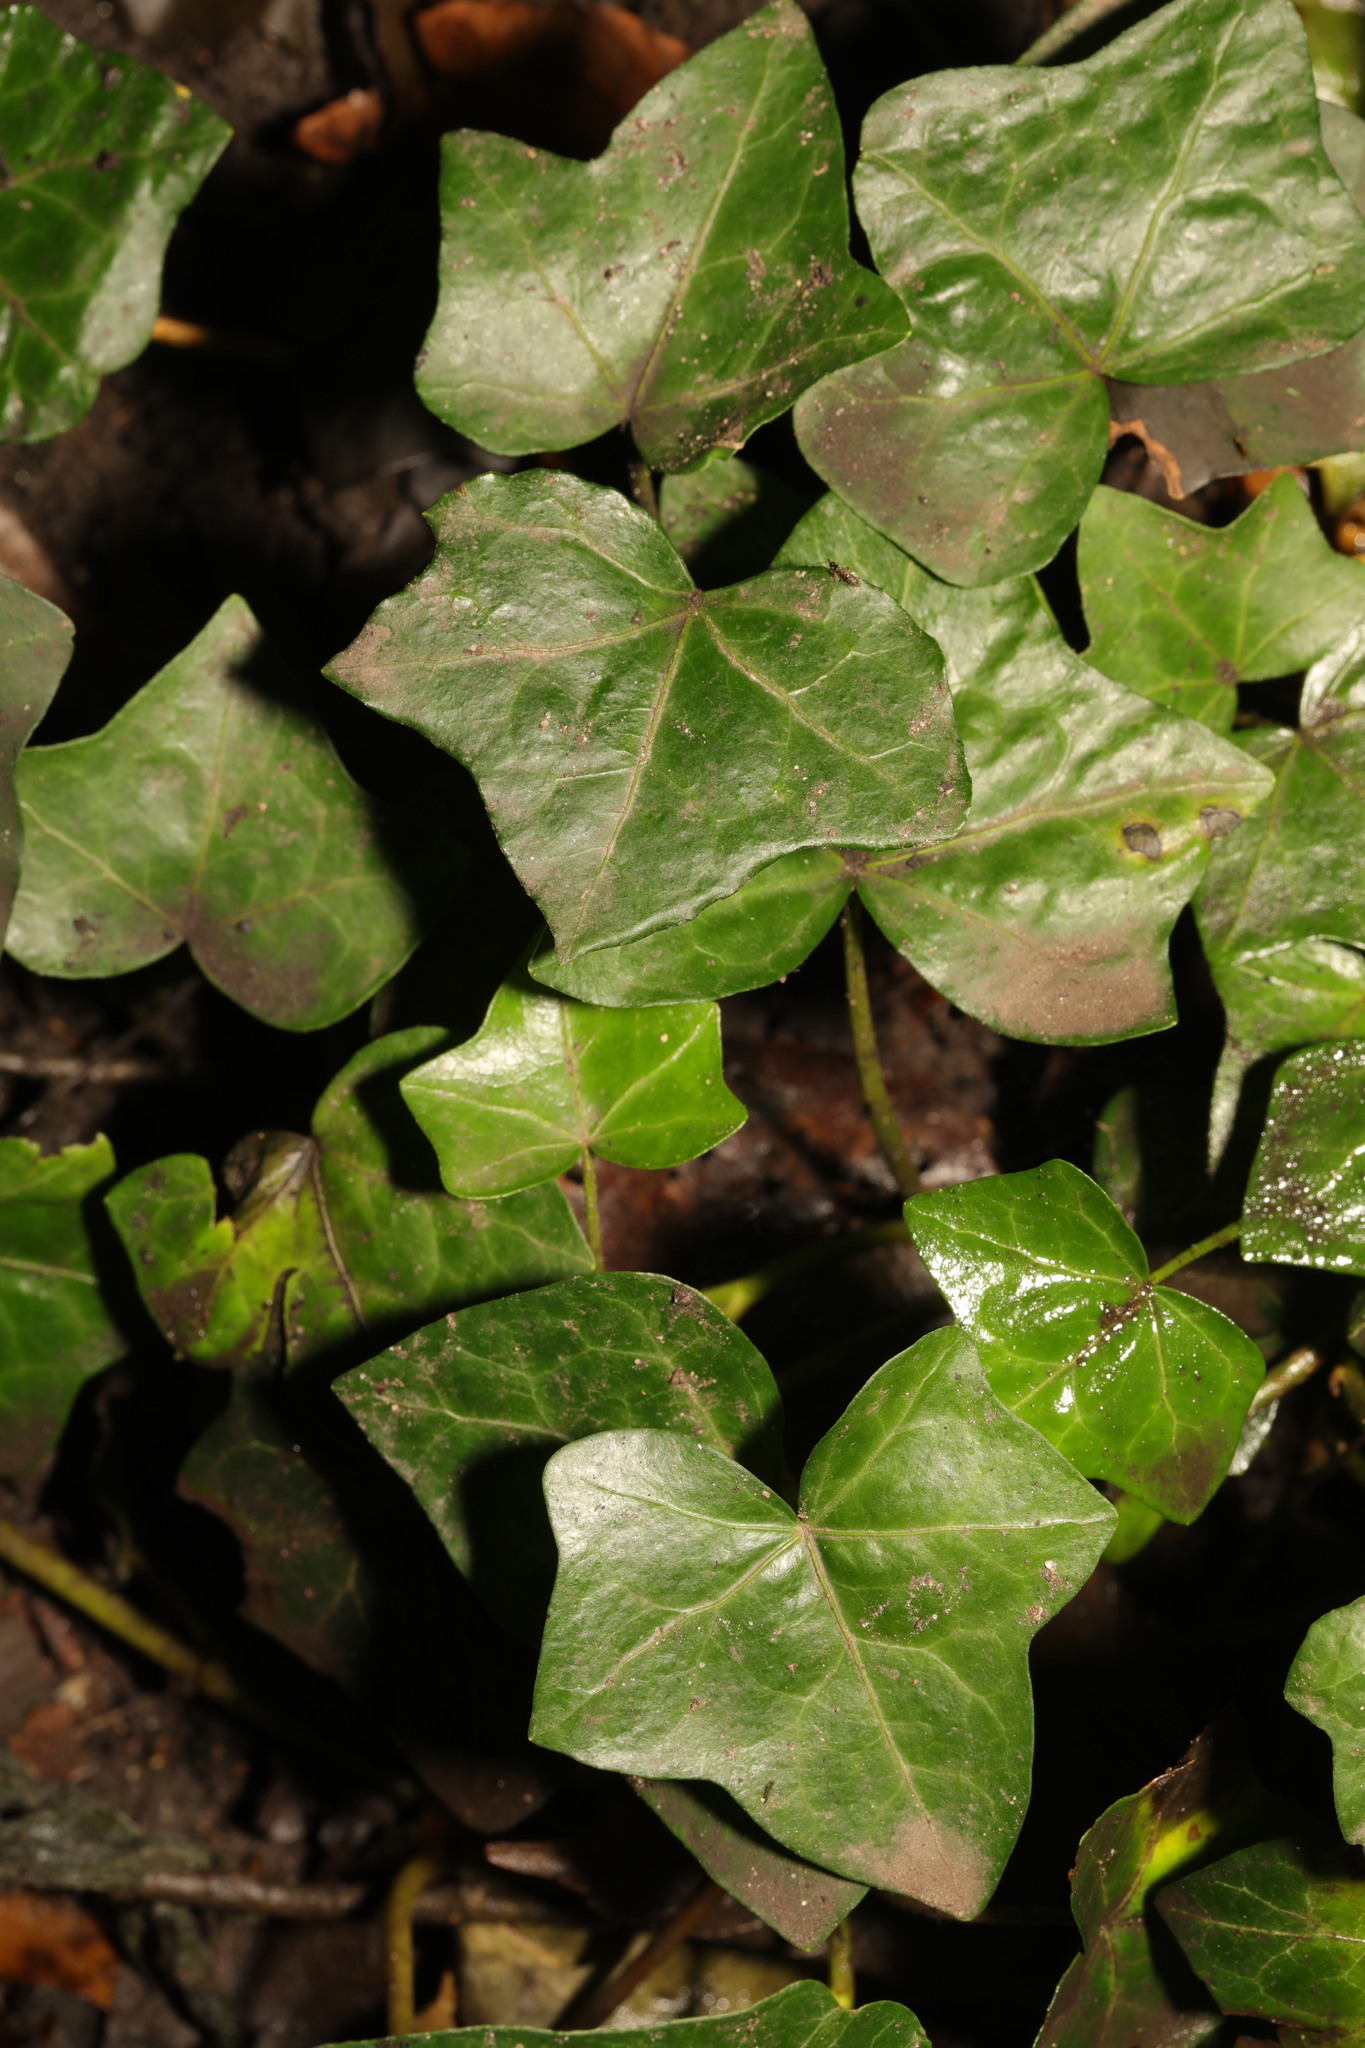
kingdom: Plantae
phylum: Tracheophyta
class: Magnoliopsida
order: Apiales
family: Araliaceae
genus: Hedera
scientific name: Hedera helix
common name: Ivy
